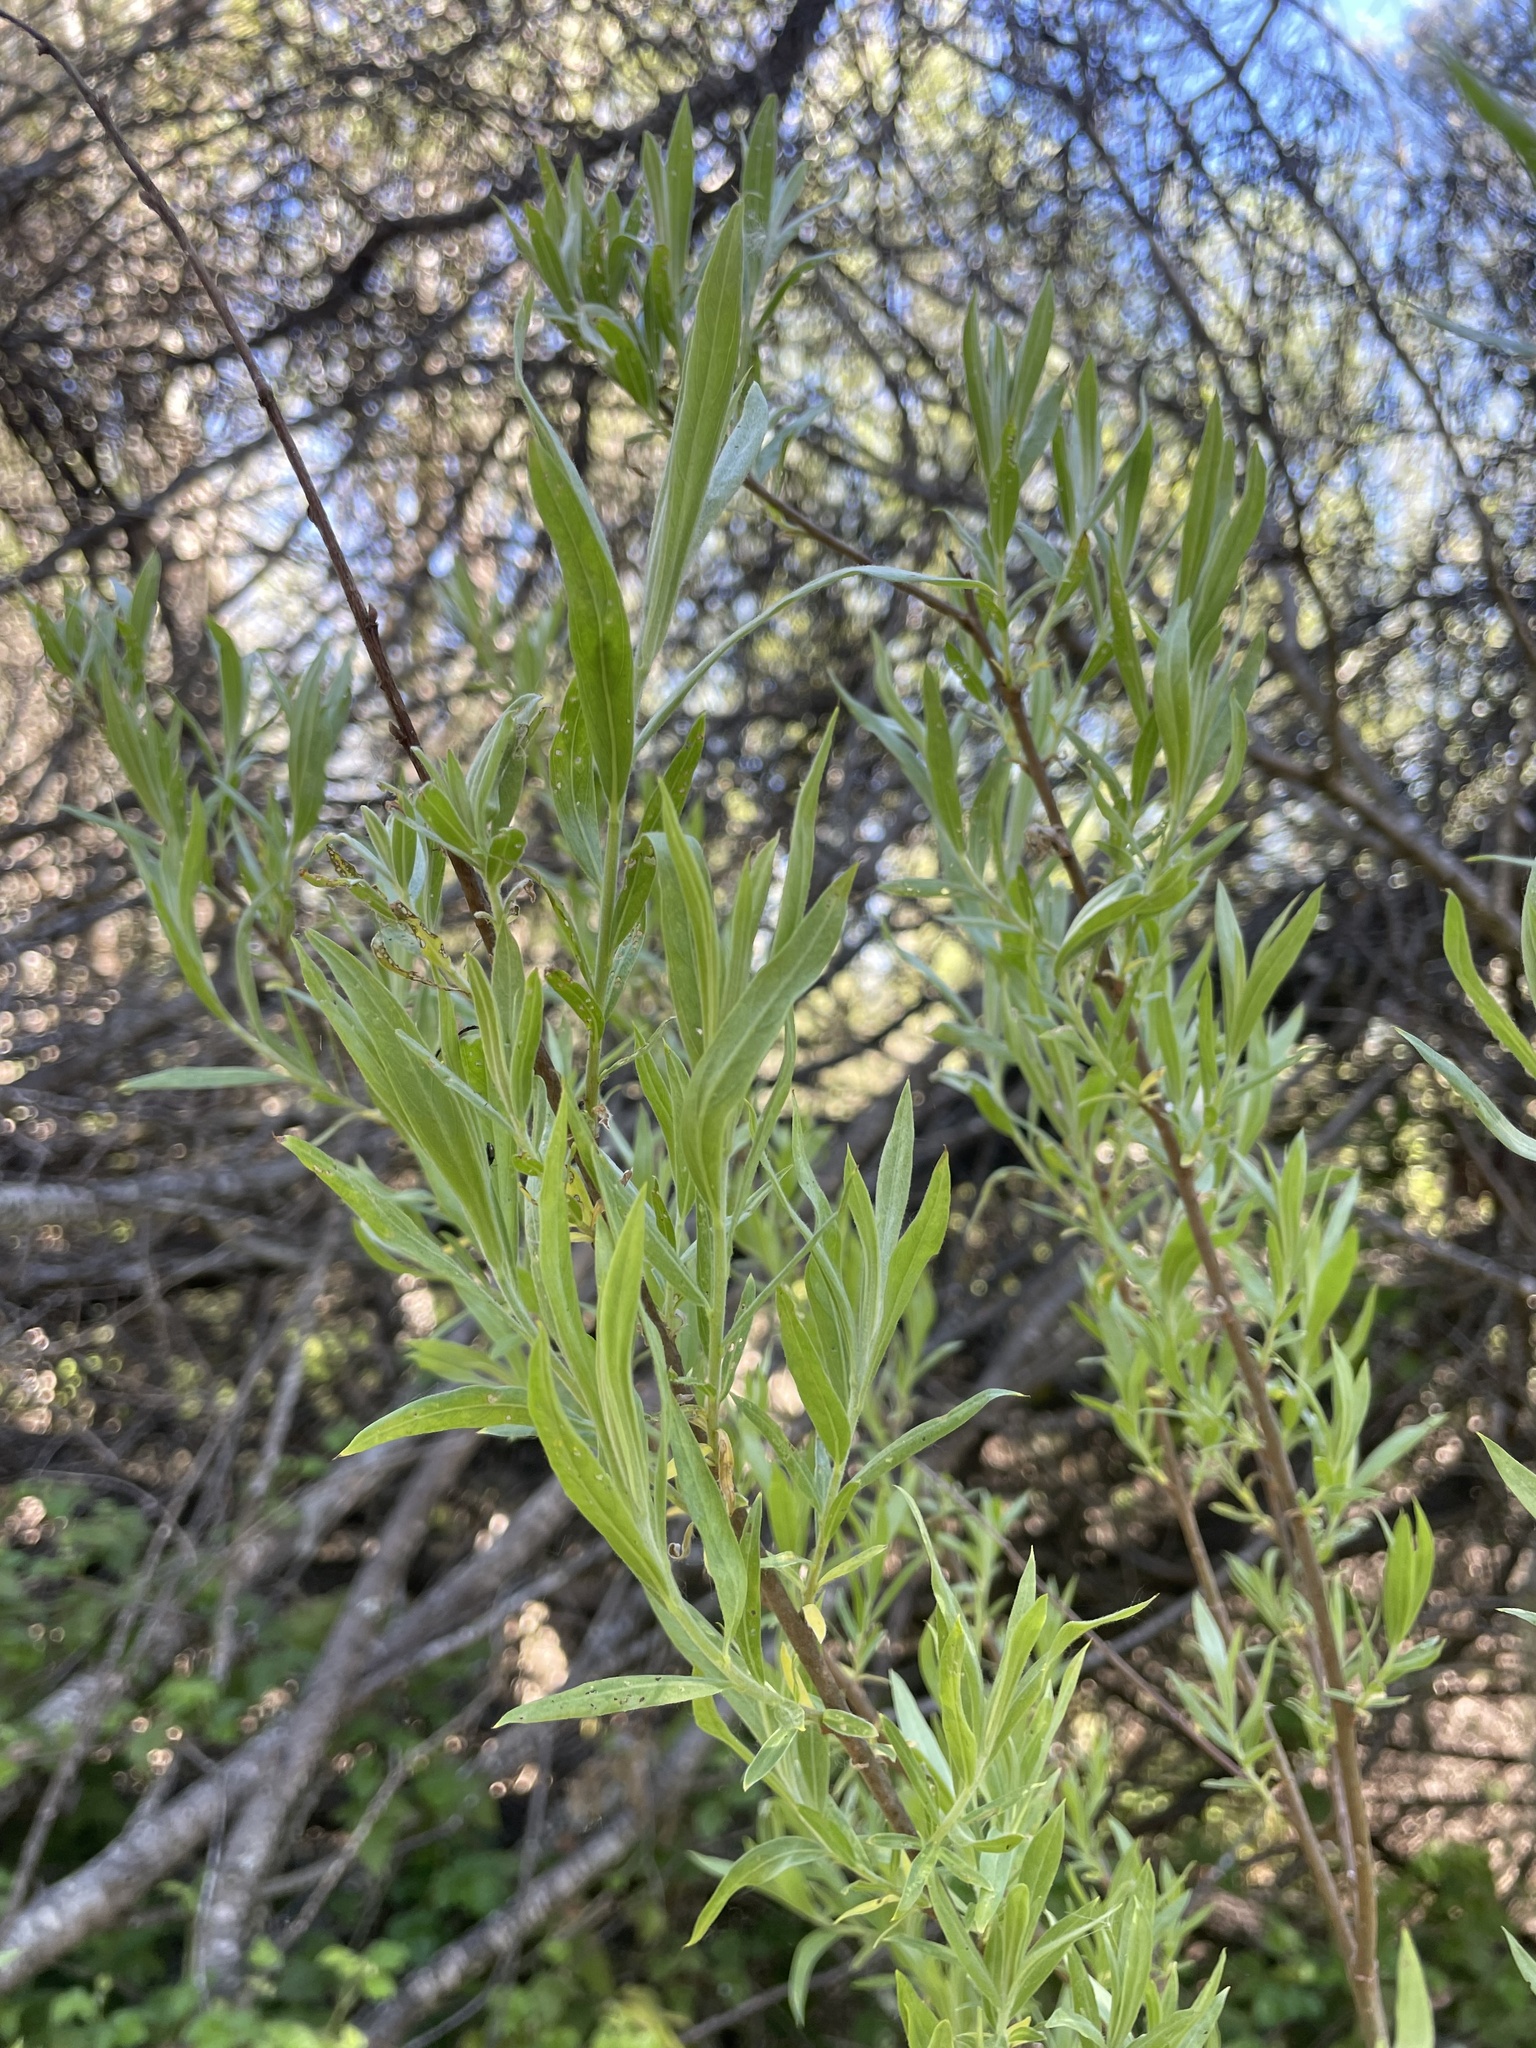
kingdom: Plantae
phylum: Tracheophyta
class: Magnoliopsida
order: Malpighiales
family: Salicaceae
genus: Salix
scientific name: Salix exigua
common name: Coyote willow
